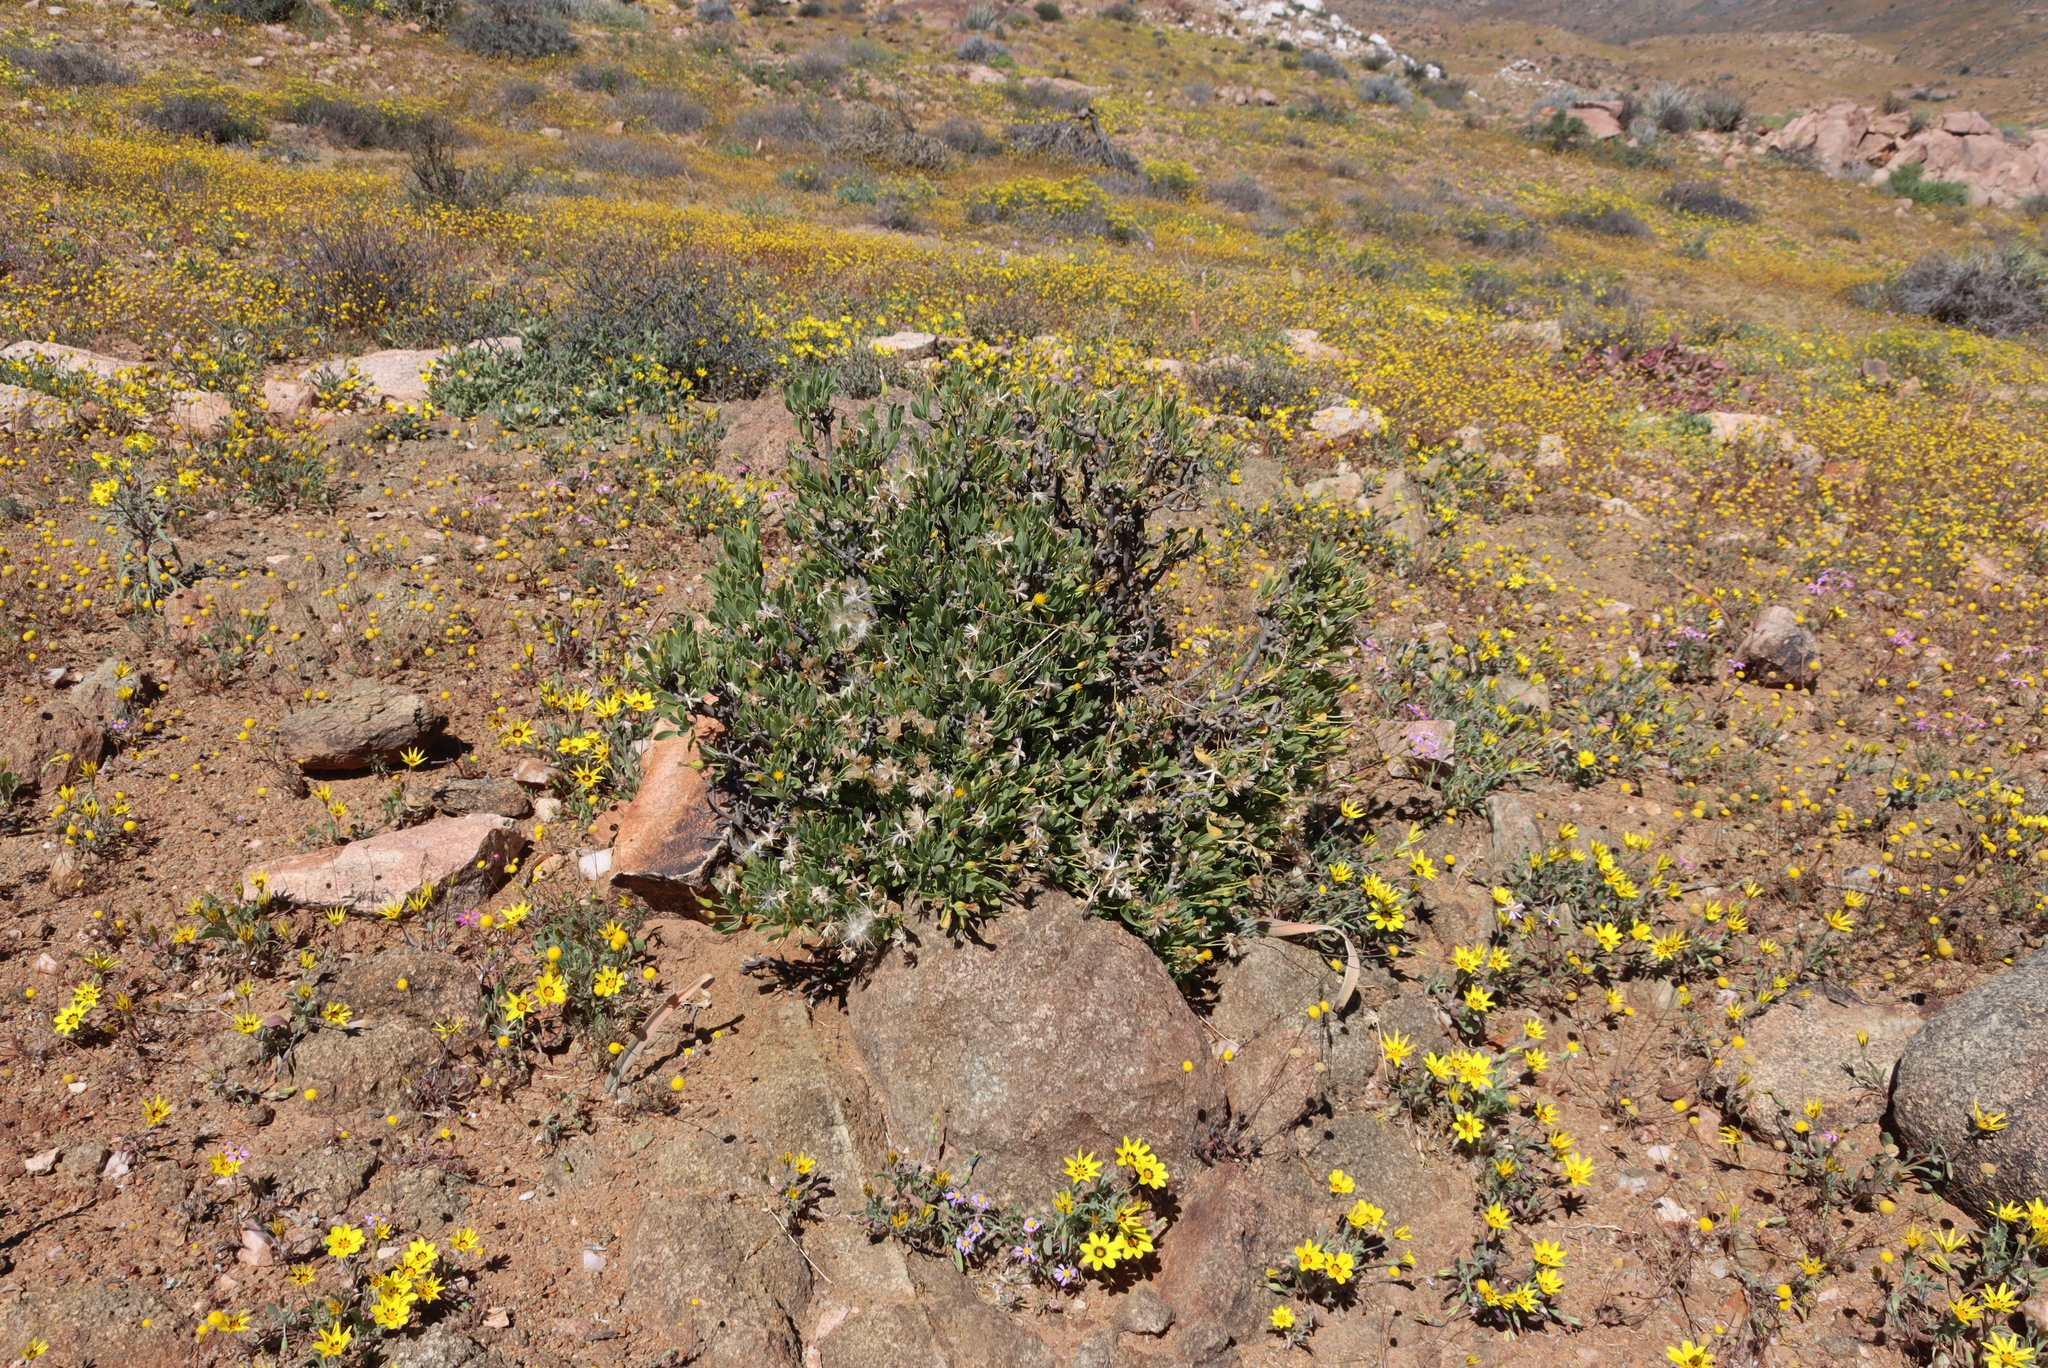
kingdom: Plantae
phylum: Tracheophyta
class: Magnoliopsida
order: Asterales
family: Asteraceae
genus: Othonna
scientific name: Othonna lasiocarpa
